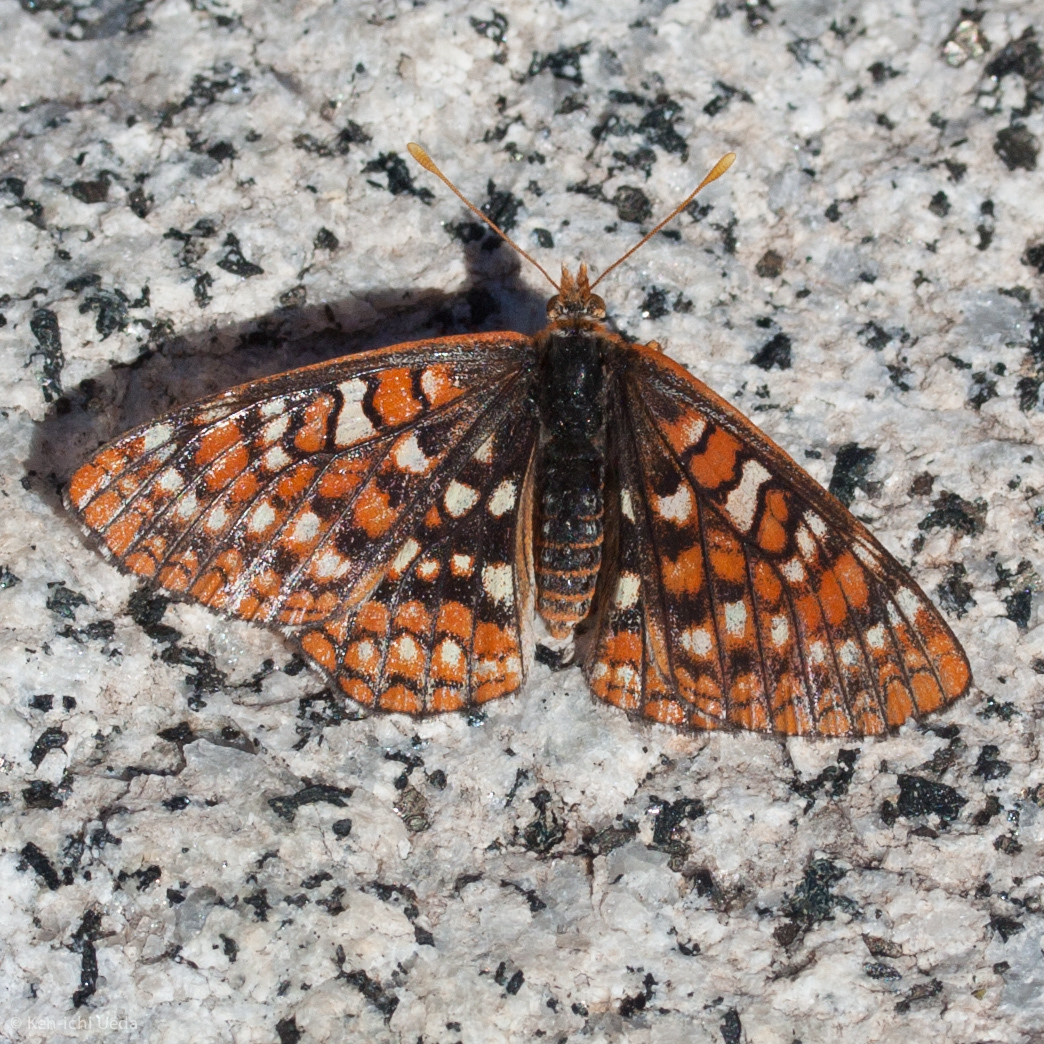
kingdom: Animalia
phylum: Arthropoda
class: Insecta
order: Lepidoptera
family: Nymphalidae
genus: Occidryas
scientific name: Occidryas chalcedona
